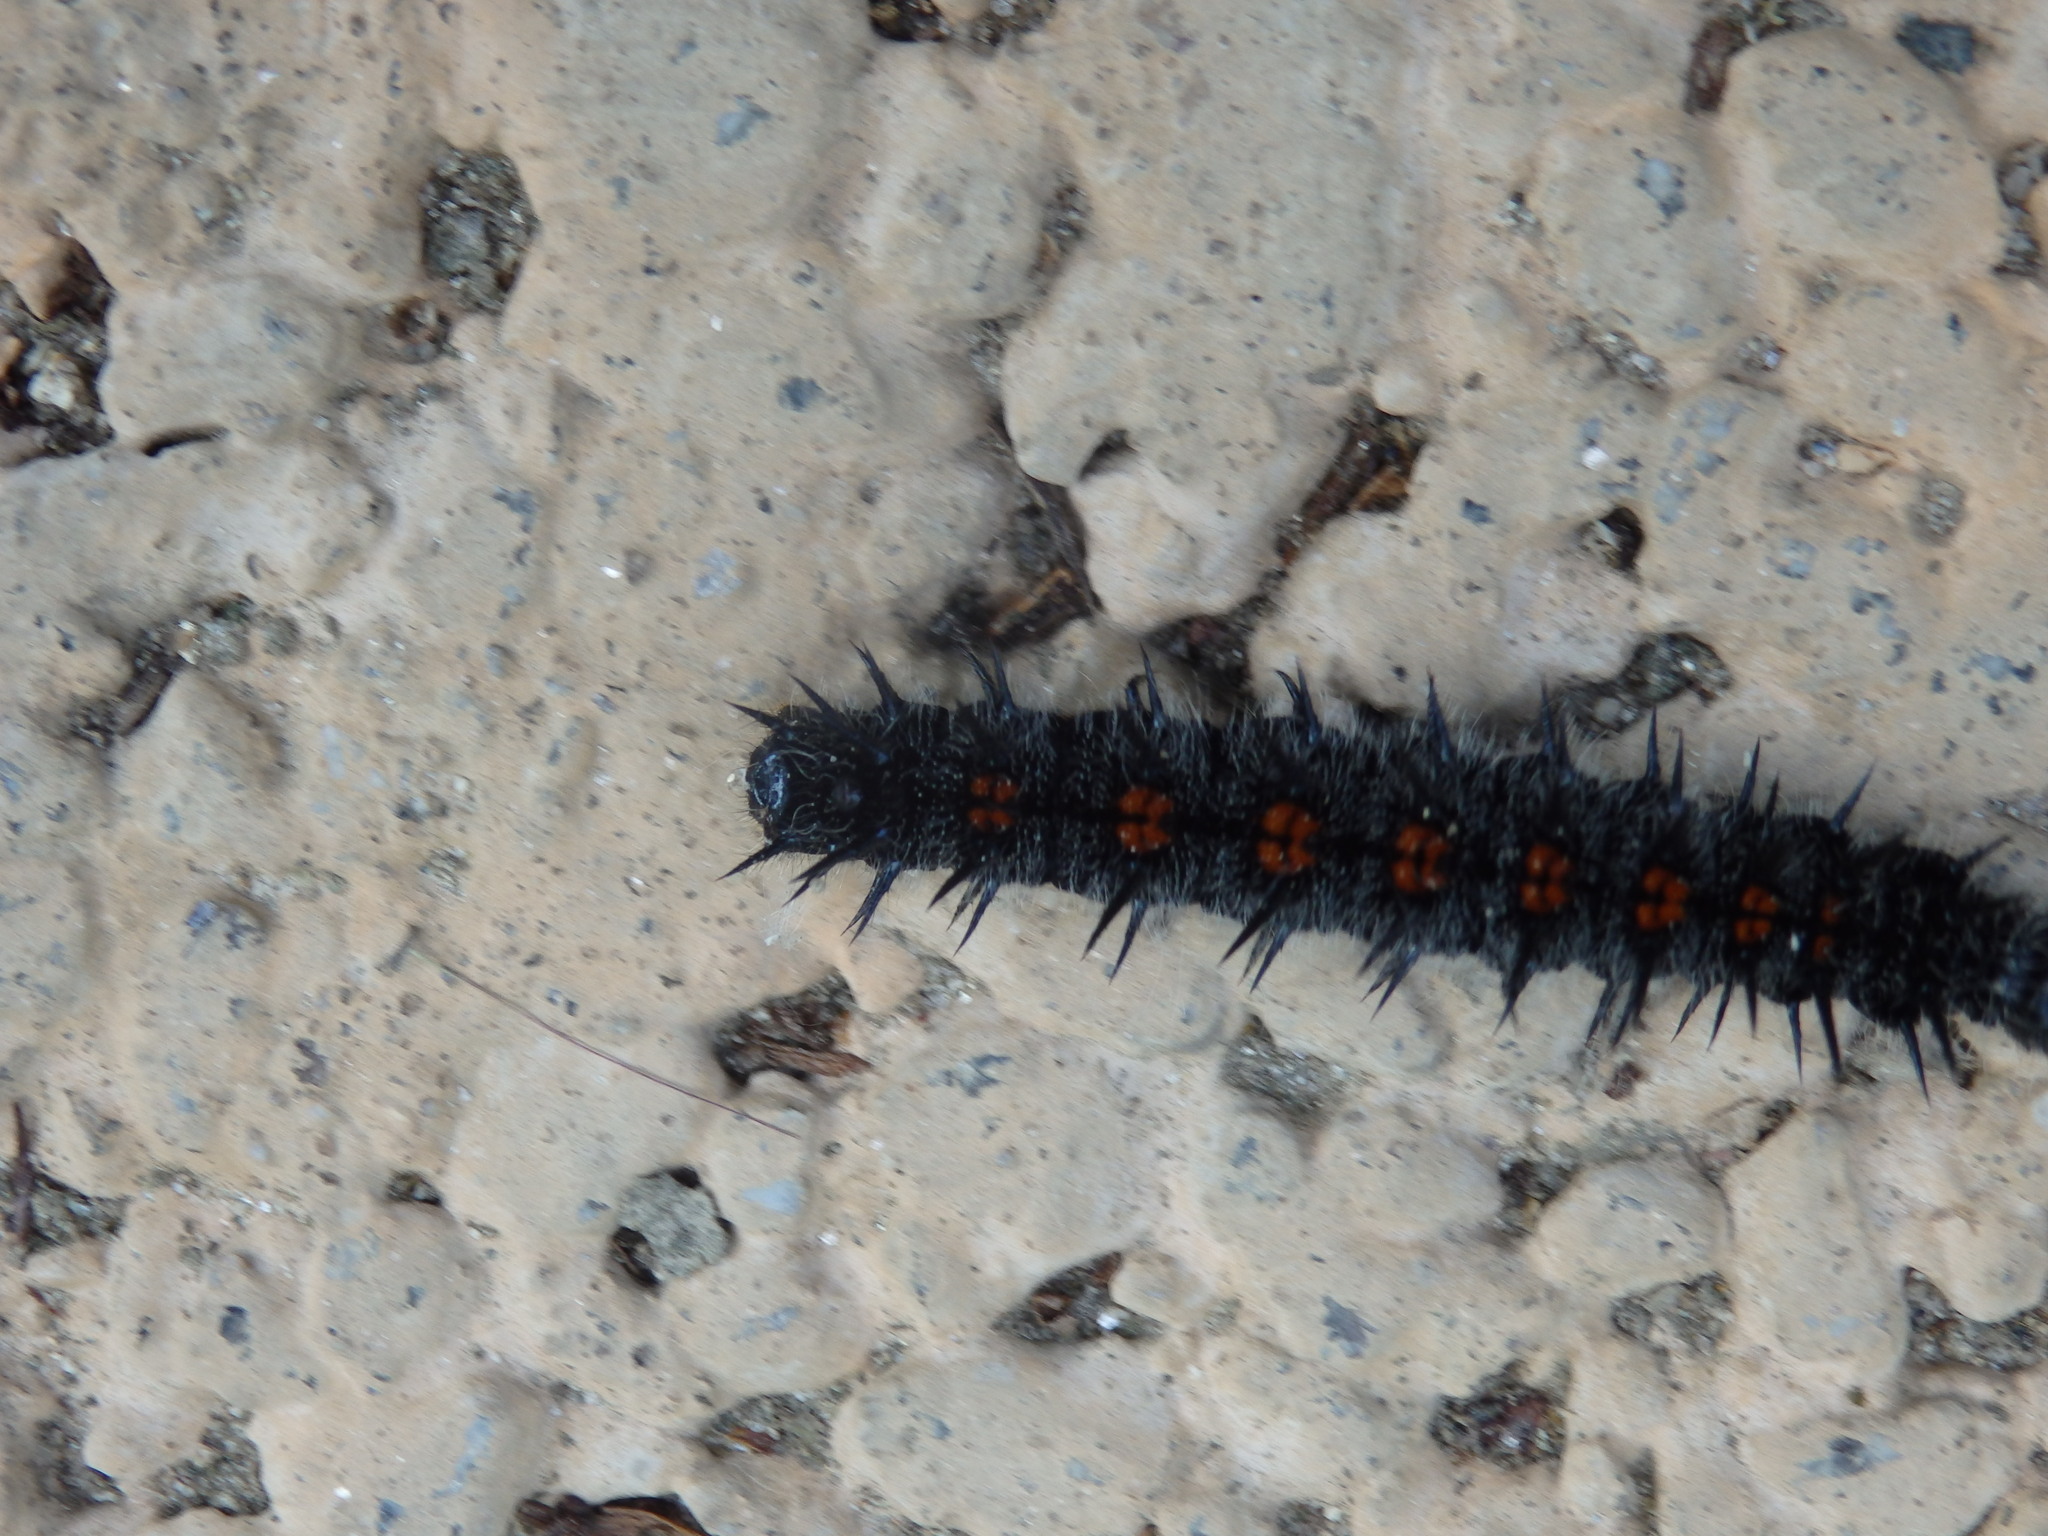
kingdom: Animalia
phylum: Arthropoda
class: Insecta
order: Lepidoptera
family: Nymphalidae
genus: Nymphalis
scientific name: Nymphalis antiopa
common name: Camberwell beauty
